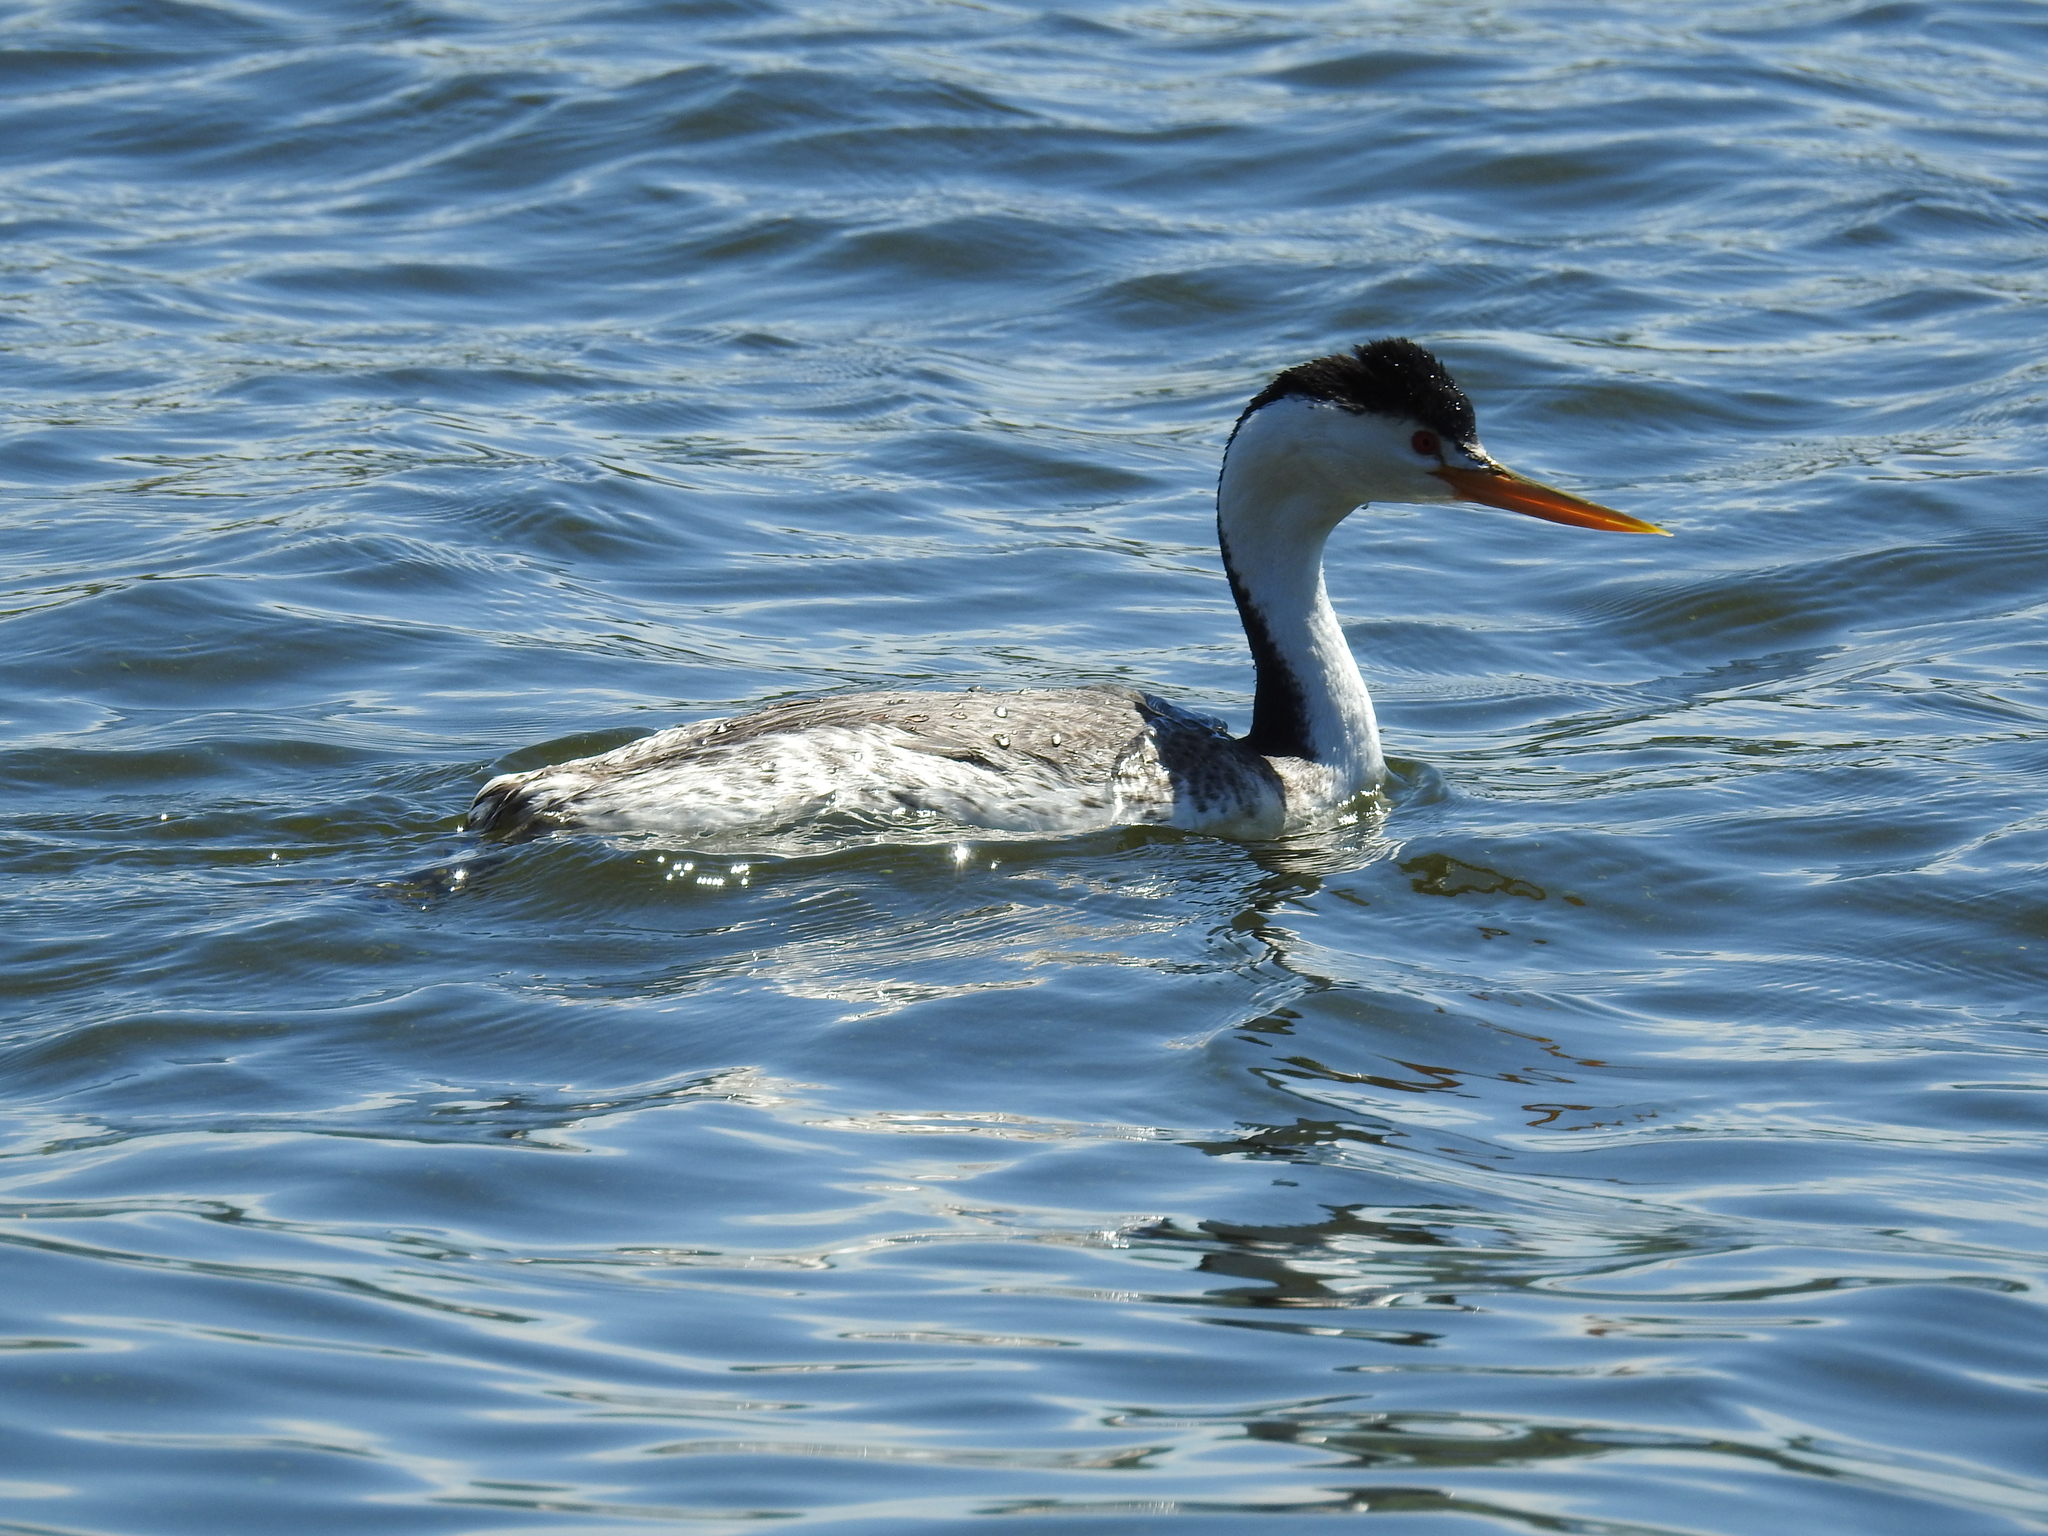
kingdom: Animalia
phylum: Chordata
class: Aves
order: Podicipediformes
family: Podicipedidae
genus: Aechmophorus
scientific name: Aechmophorus clarkii
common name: Clark's grebe
